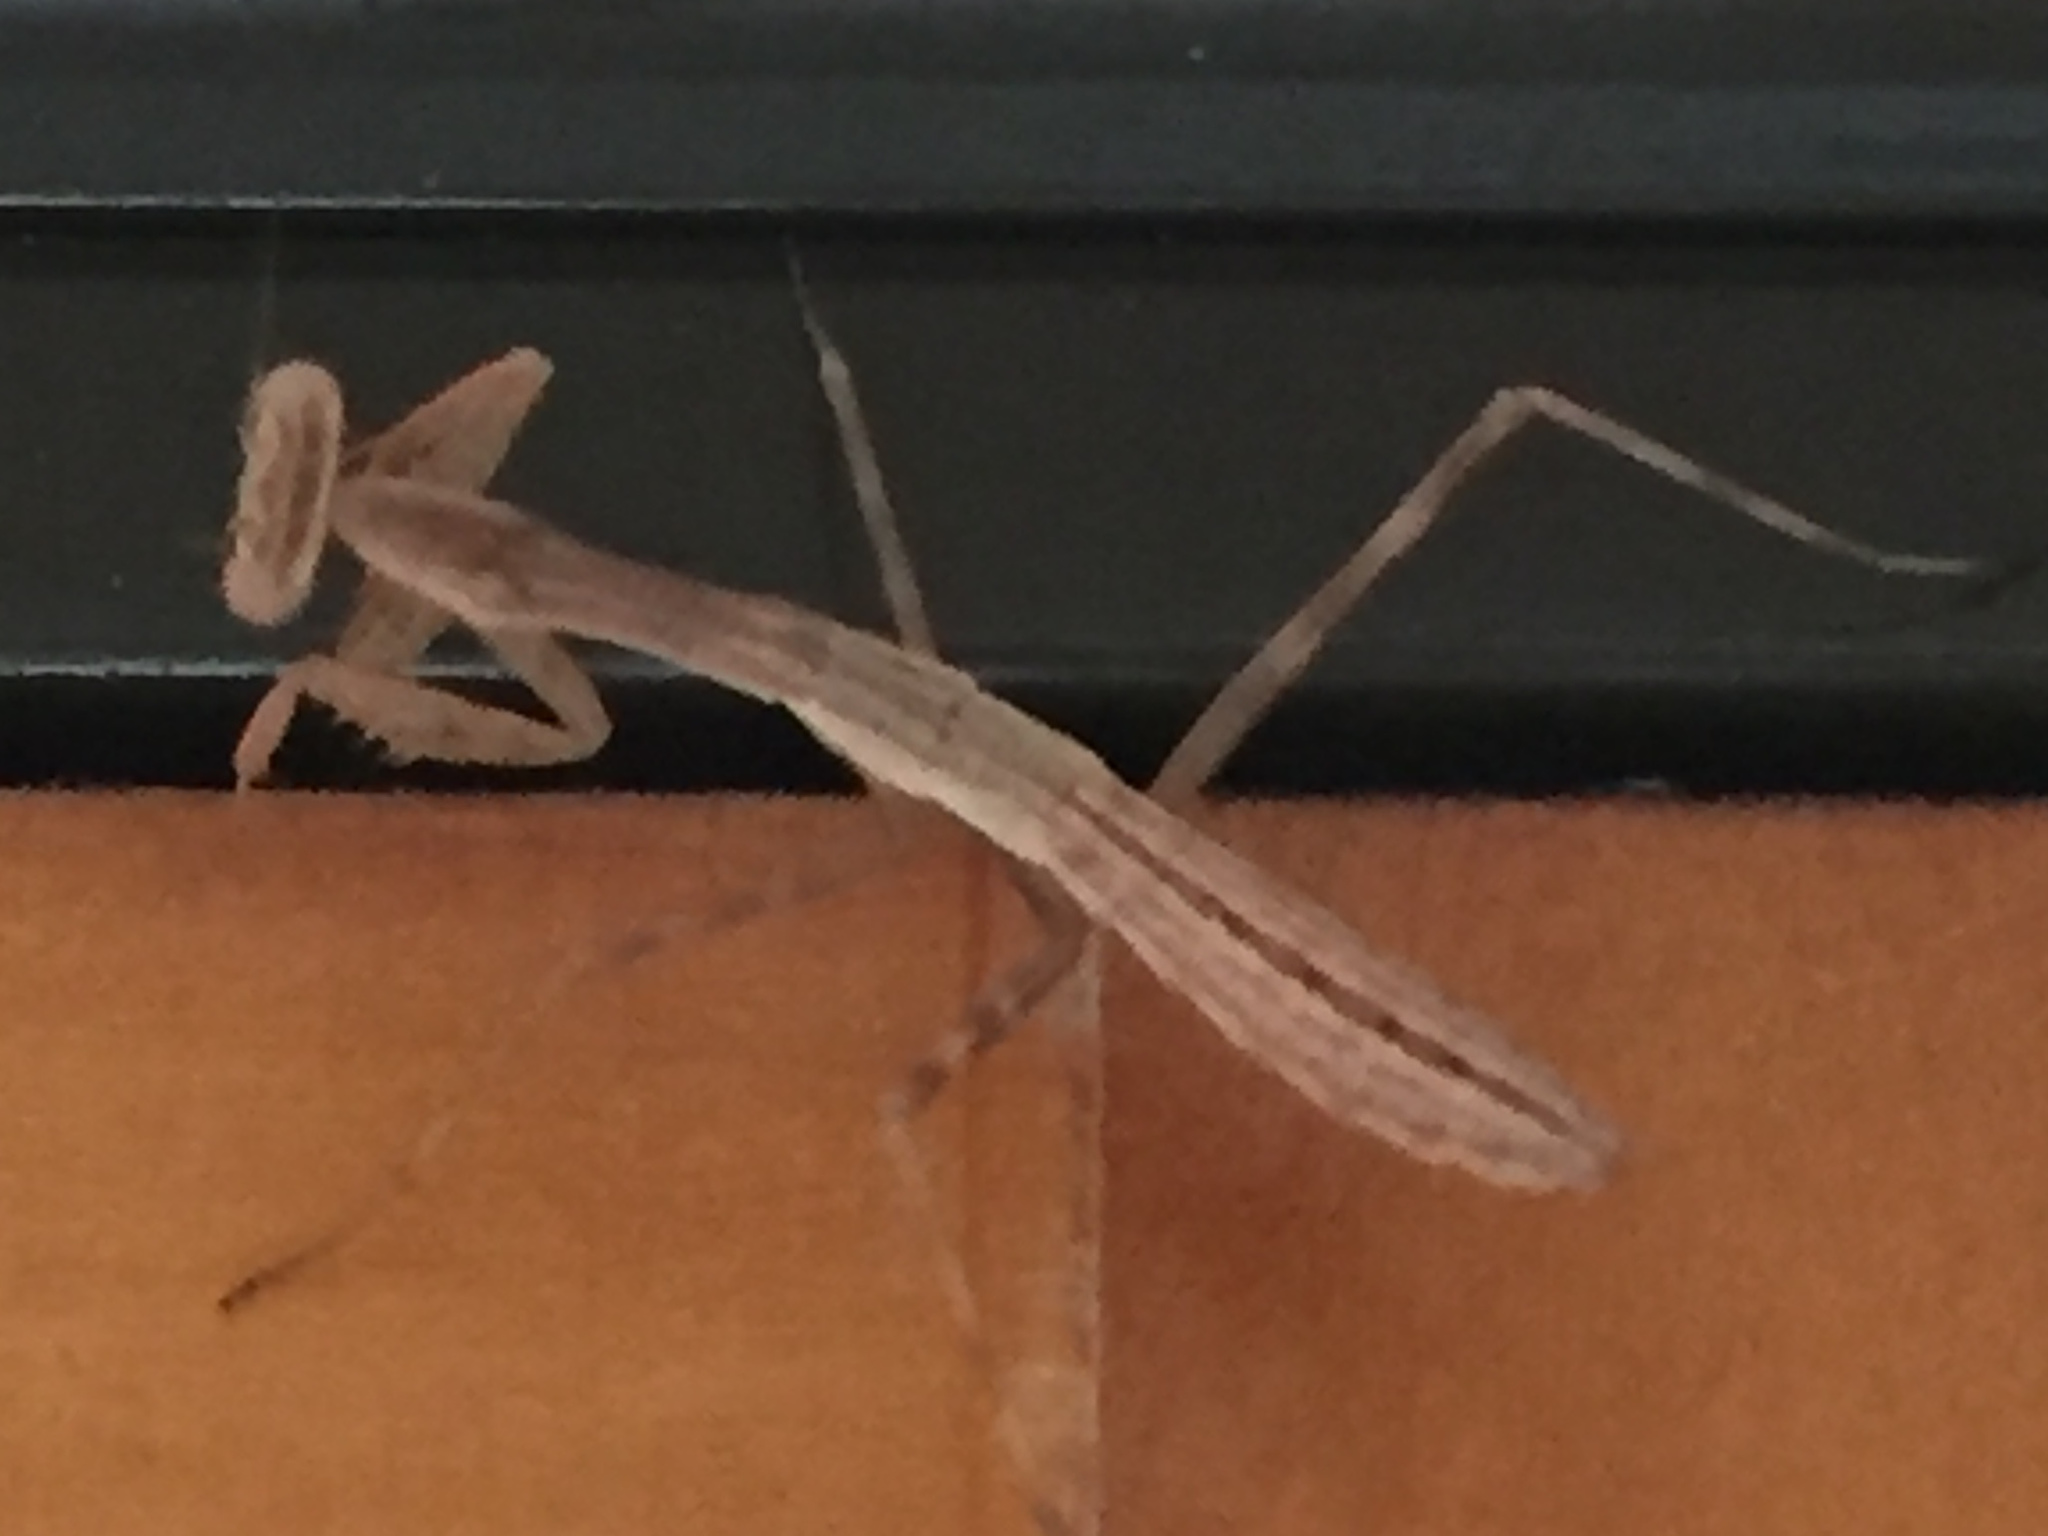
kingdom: Animalia
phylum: Arthropoda
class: Insecta
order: Mantodea
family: Miomantidae
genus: Miomantis
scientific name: Miomantis caffra
